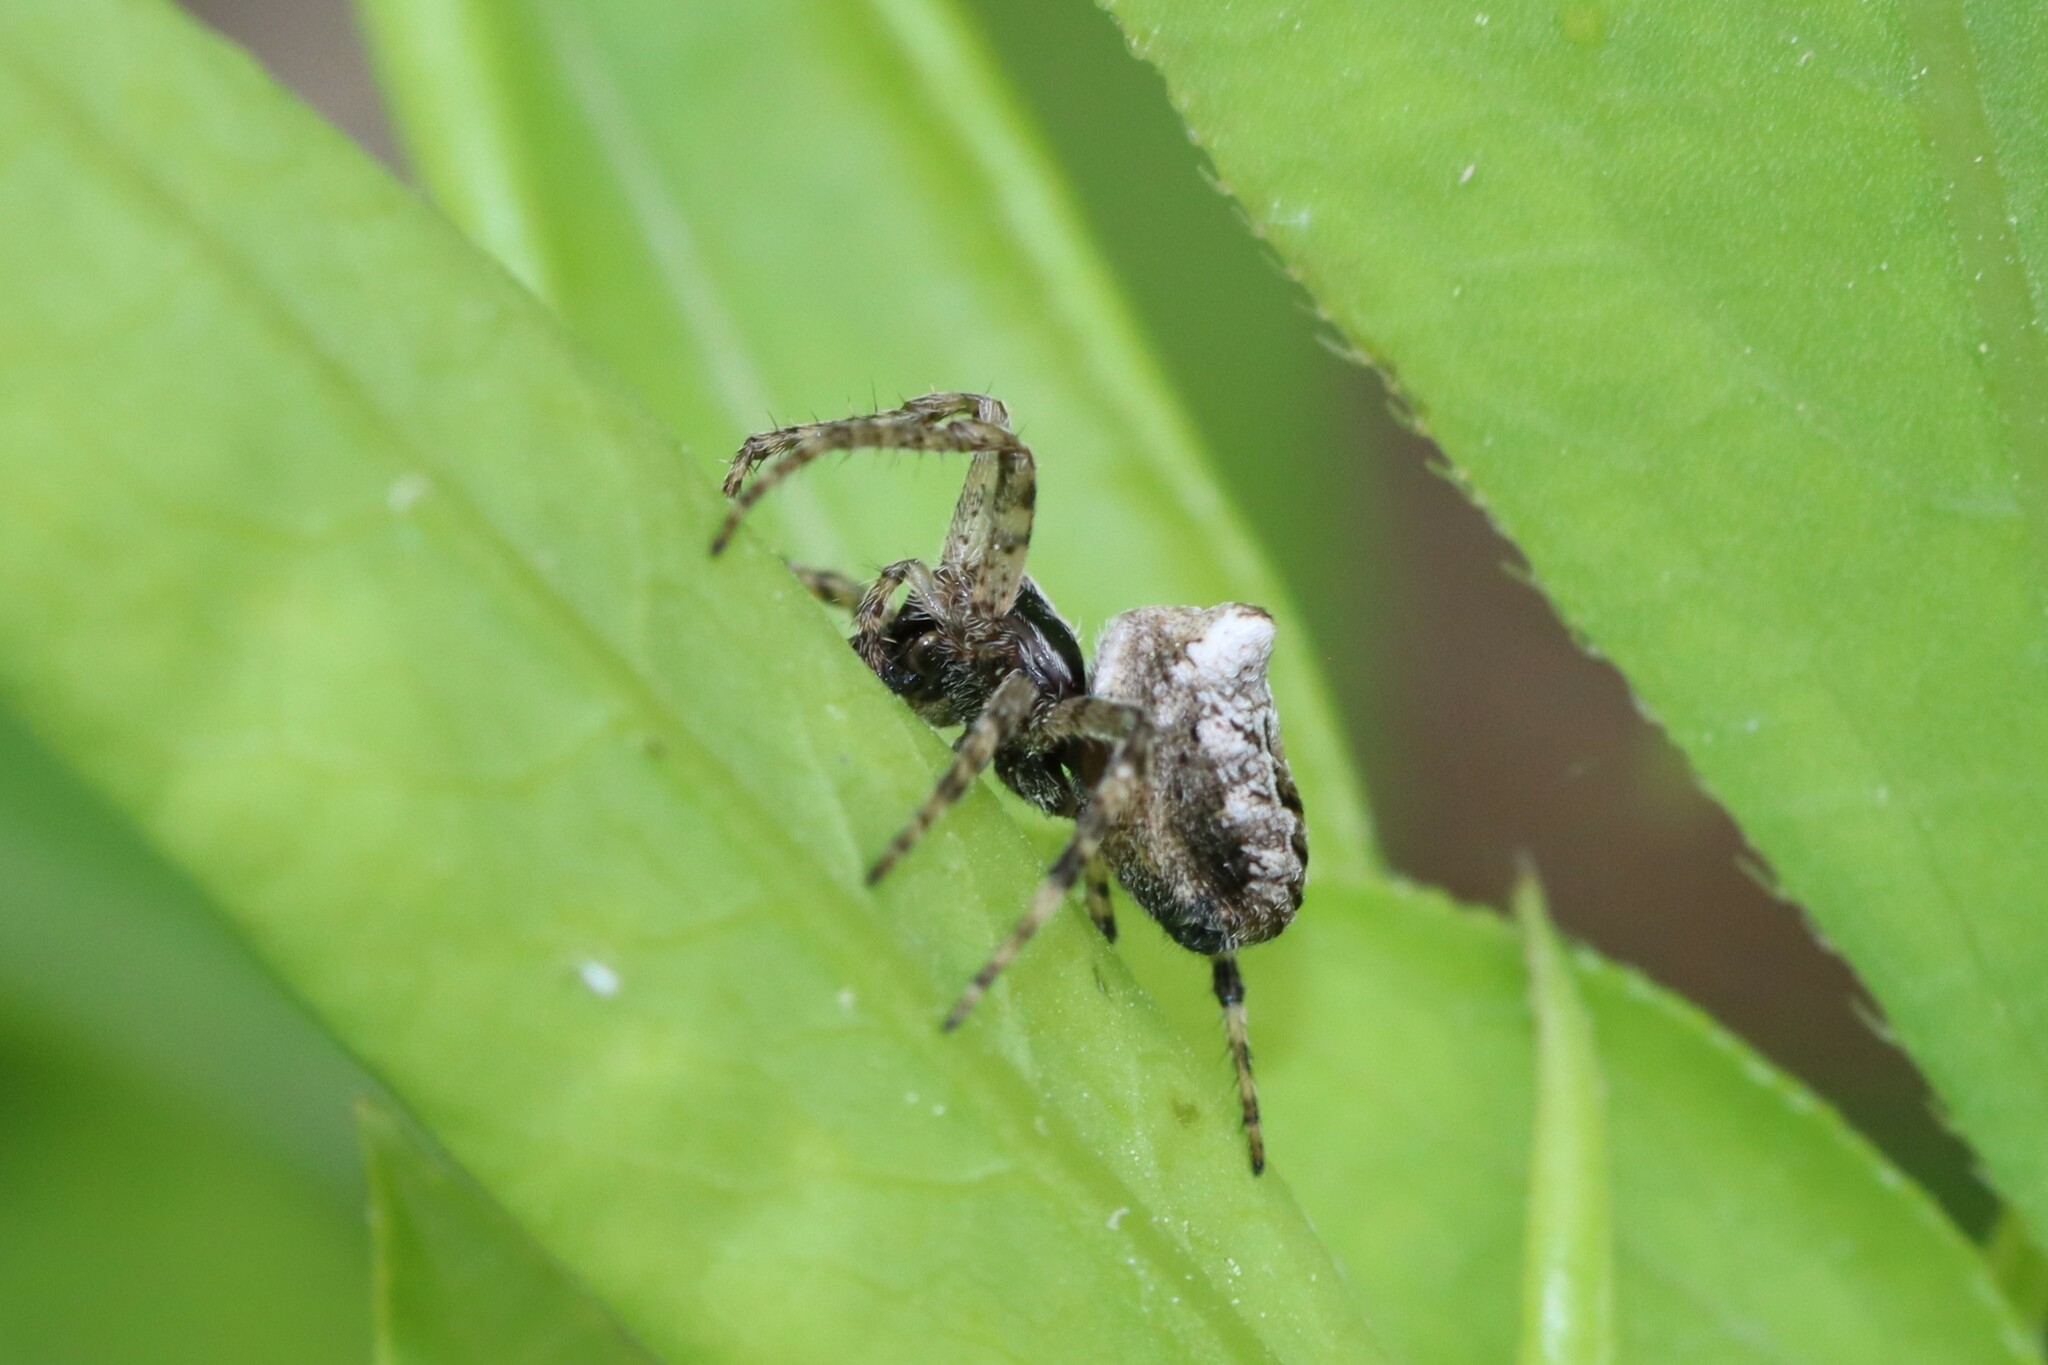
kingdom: Animalia
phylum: Arthropoda
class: Arachnida
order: Araneae
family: Araneidae
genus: Gibbaranea
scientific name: Gibbaranea bituberculata
